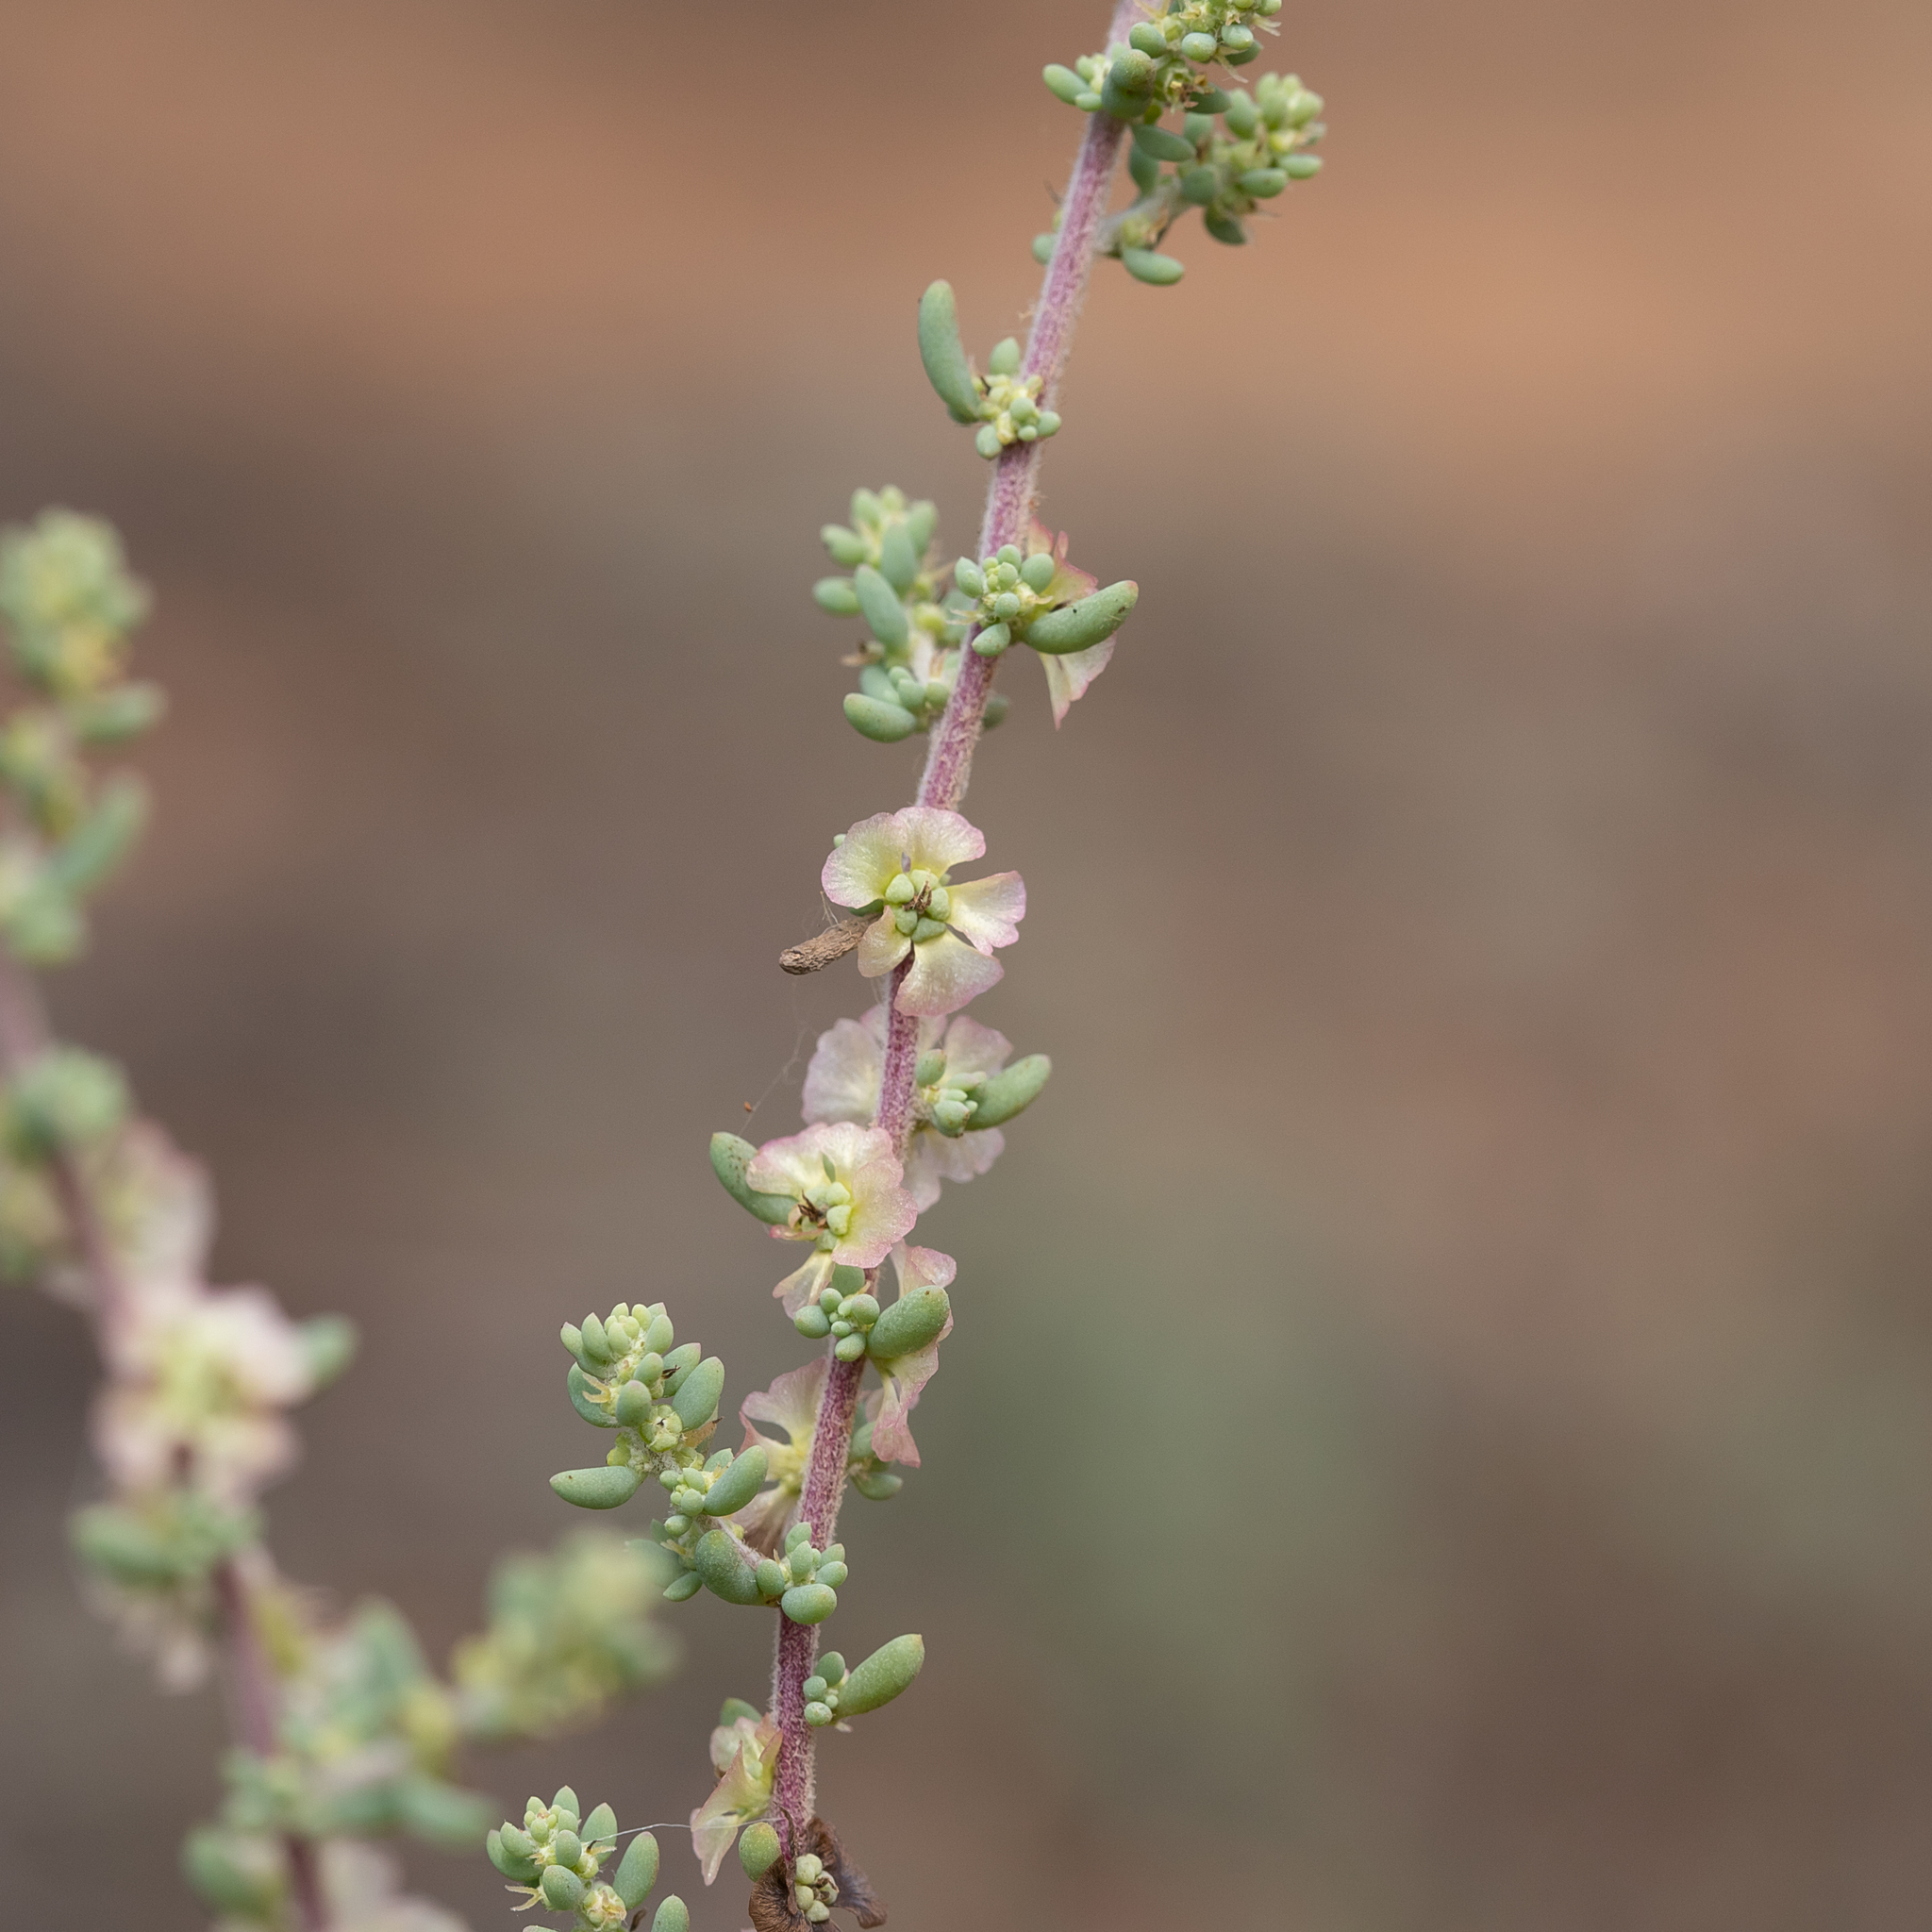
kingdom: Plantae
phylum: Tracheophyta
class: Magnoliopsida
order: Caryophyllales
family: Amaranthaceae
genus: Maireana
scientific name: Maireana brevifolia
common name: Eastern cottonbush
